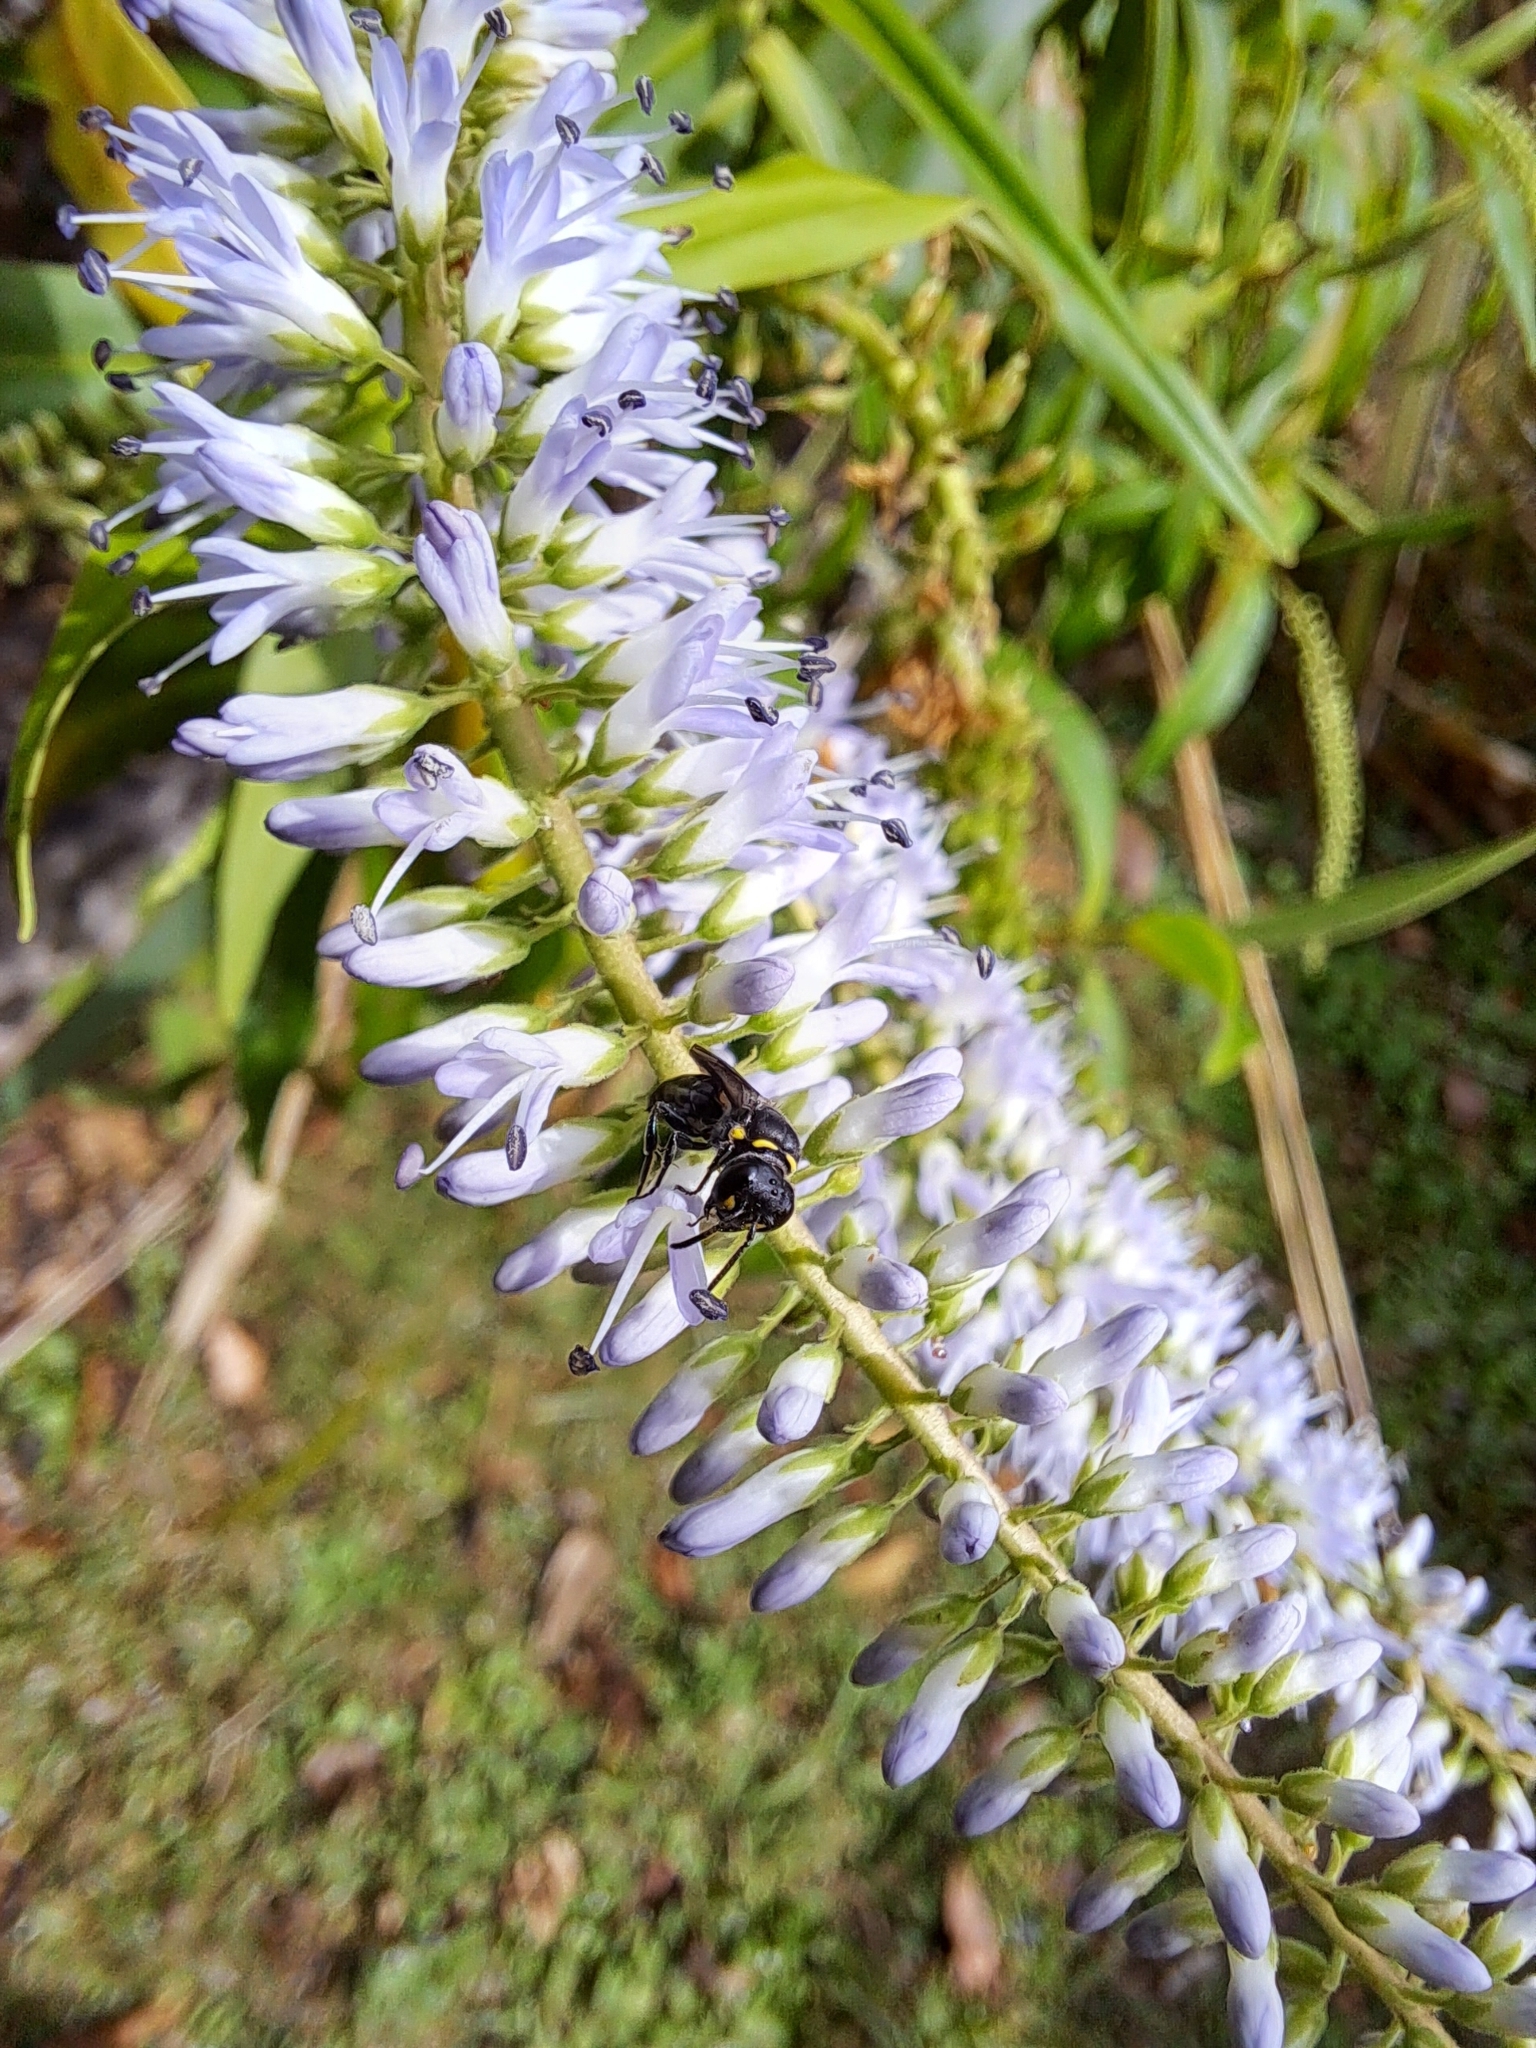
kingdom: Animalia
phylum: Arthropoda
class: Insecta
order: Hymenoptera
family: Colletidae
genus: Hylaeus
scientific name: Hylaeus relegatus
